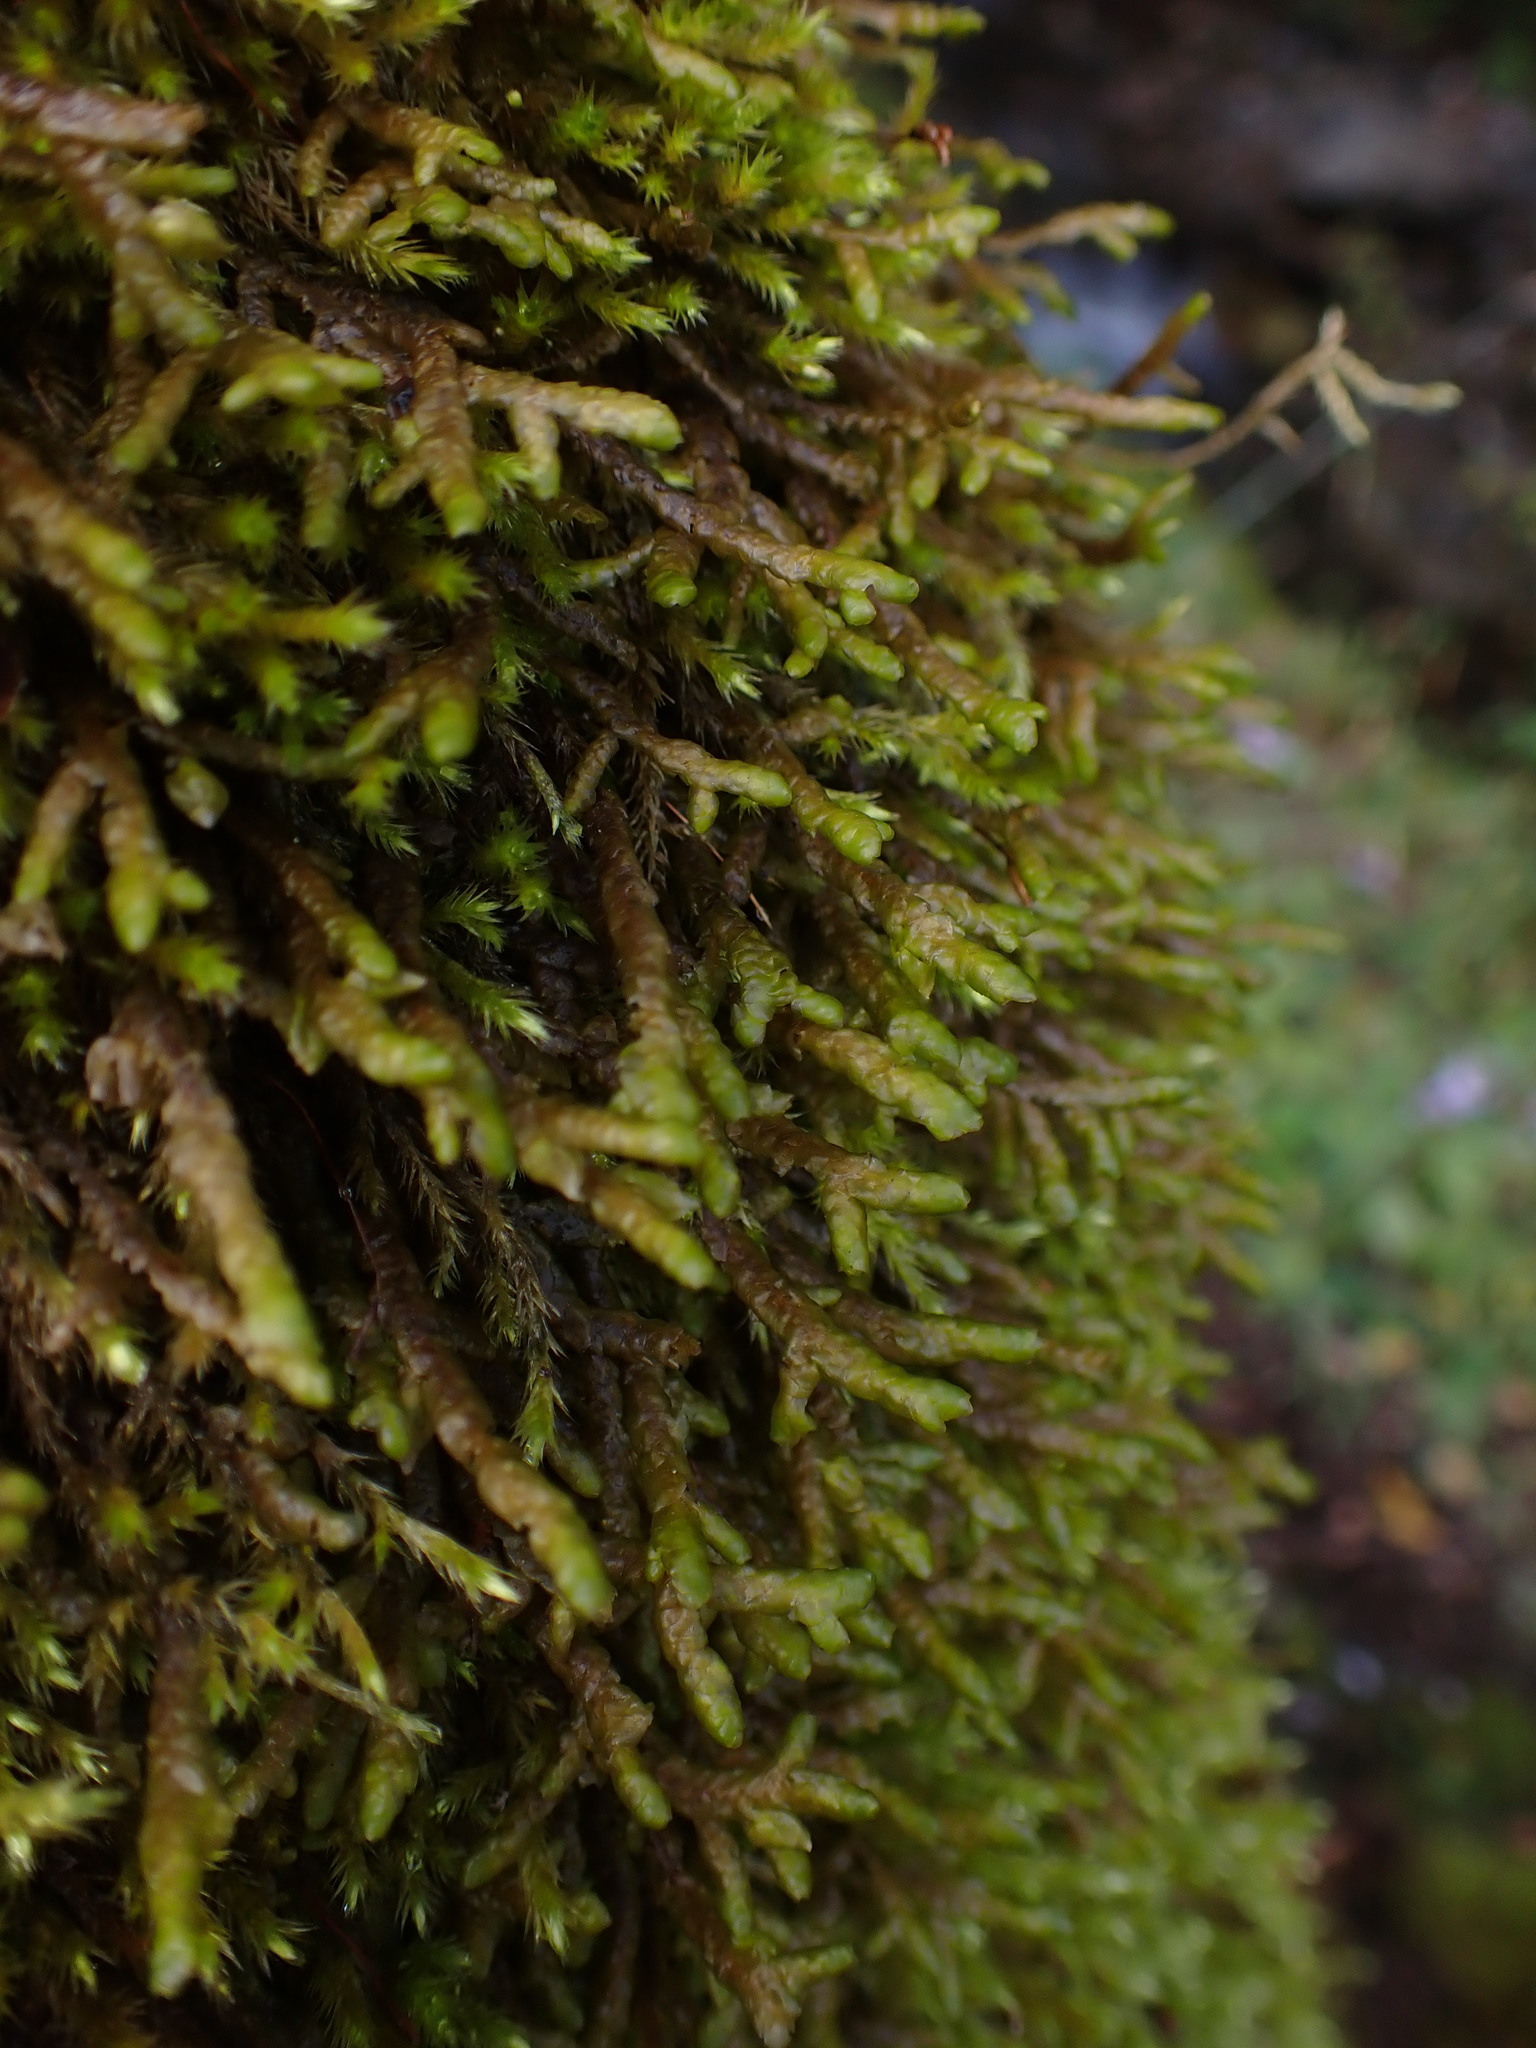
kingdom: Plantae
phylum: Marchantiophyta
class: Jungermanniopsida
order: Porellales
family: Porellaceae
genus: Porella
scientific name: Porella navicularis
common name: Tree ruffle liverwort
